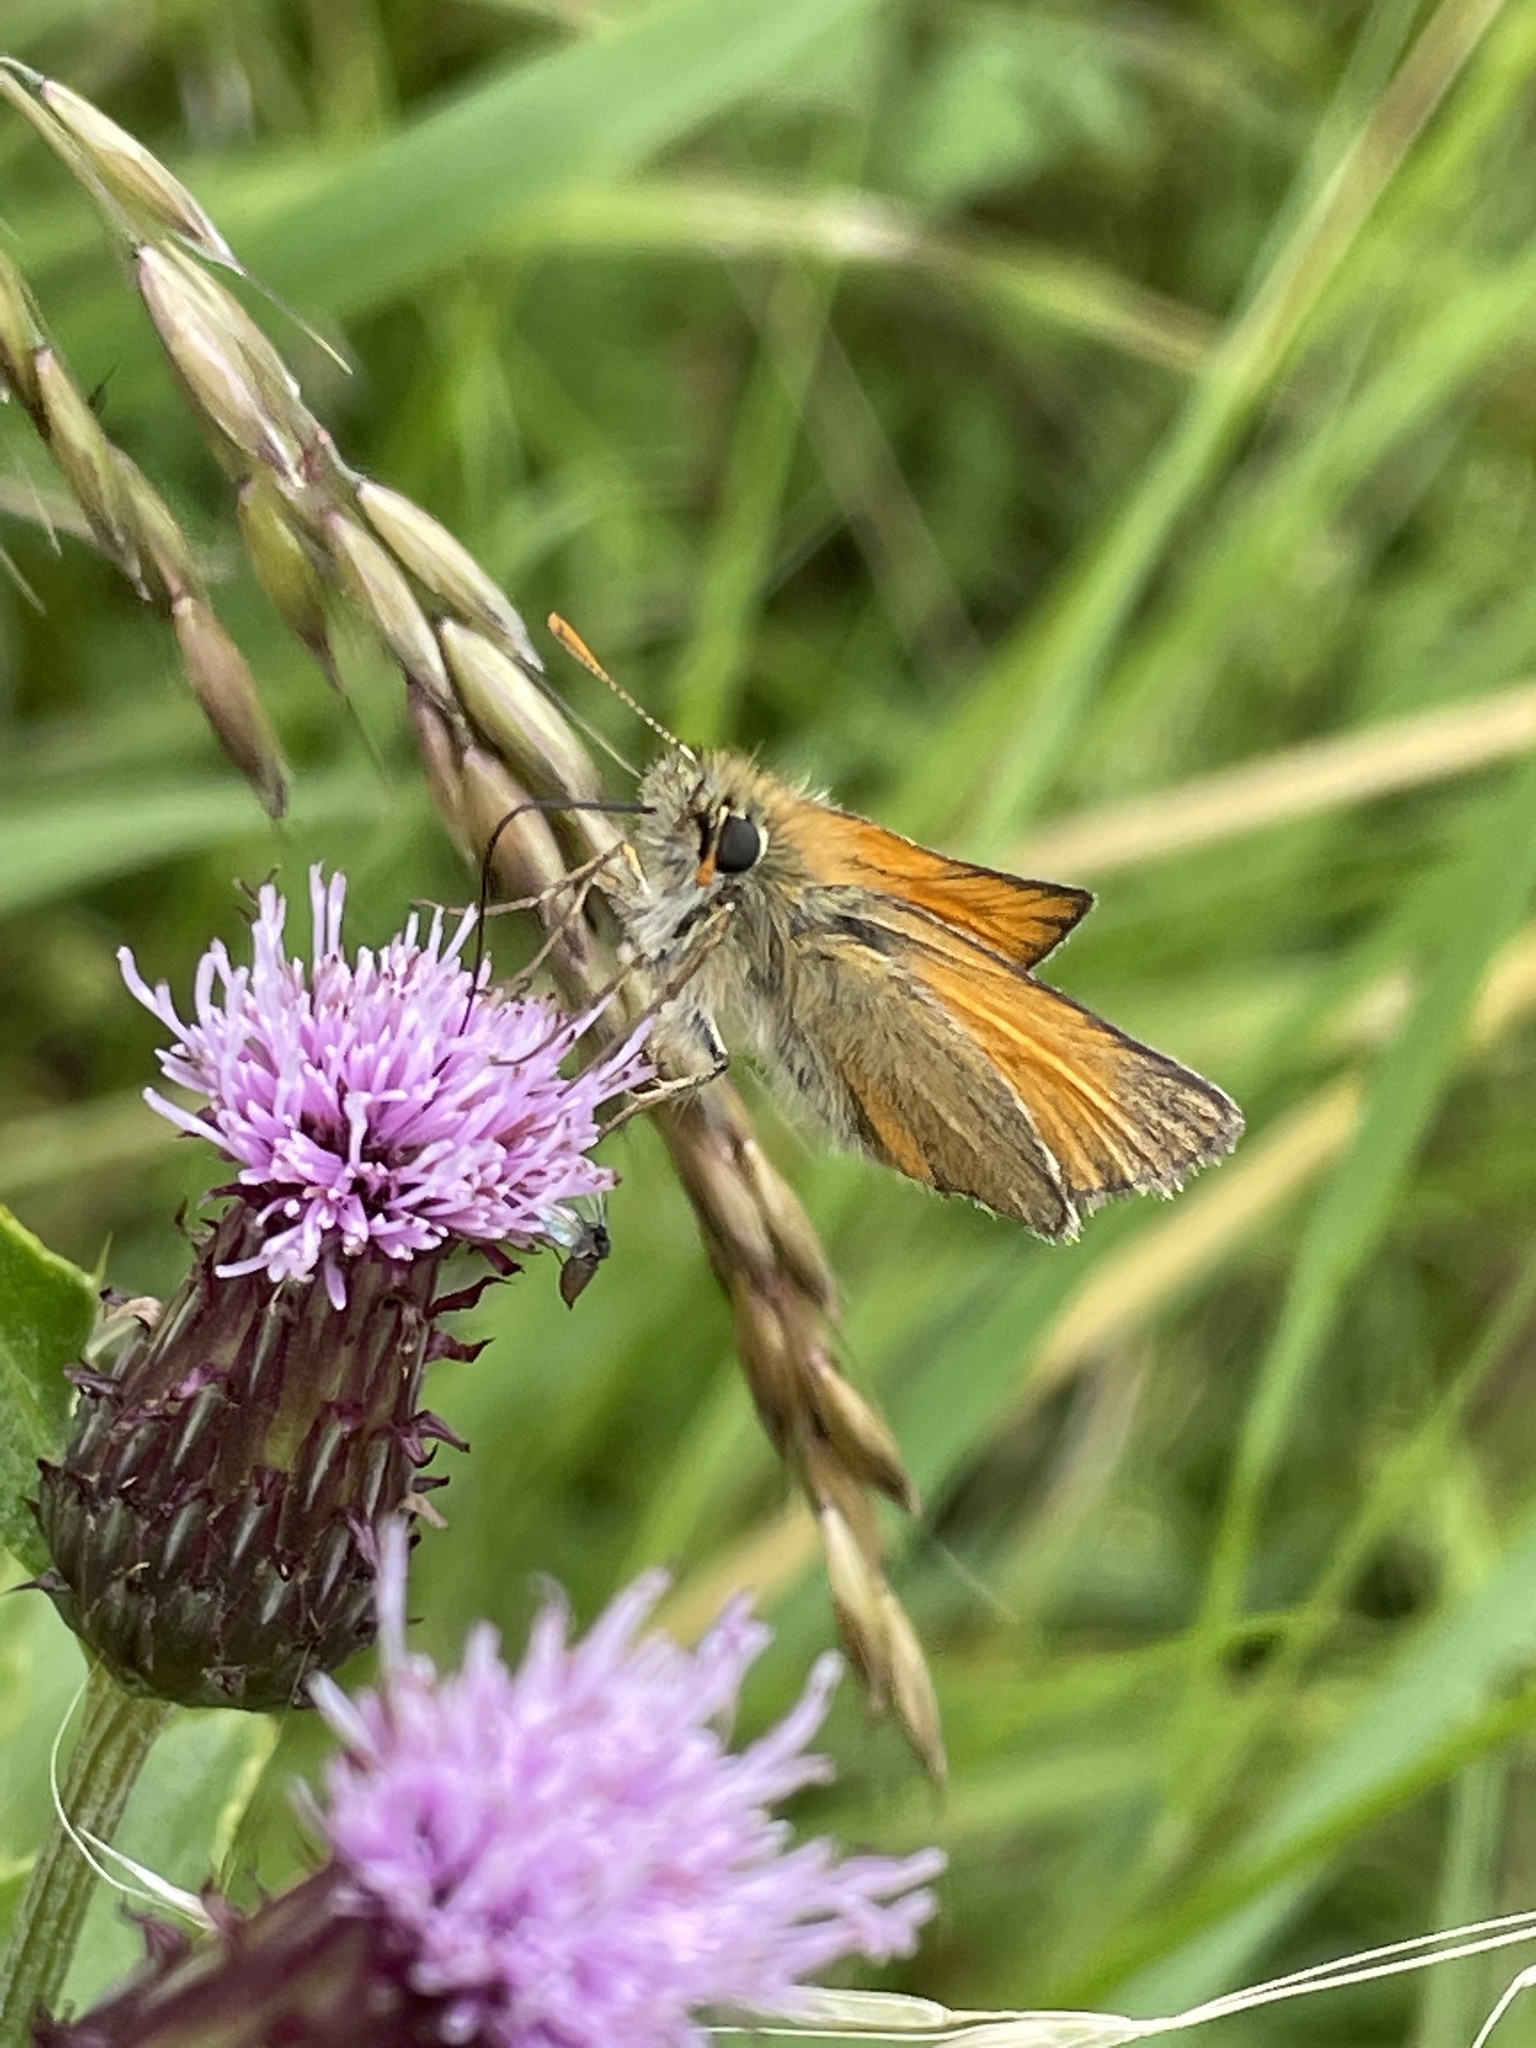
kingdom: Animalia
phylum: Arthropoda
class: Insecta
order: Lepidoptera
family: Hesperiidae
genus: Thymelicus
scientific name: Thymelicus sylvestris
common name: Small skipper
